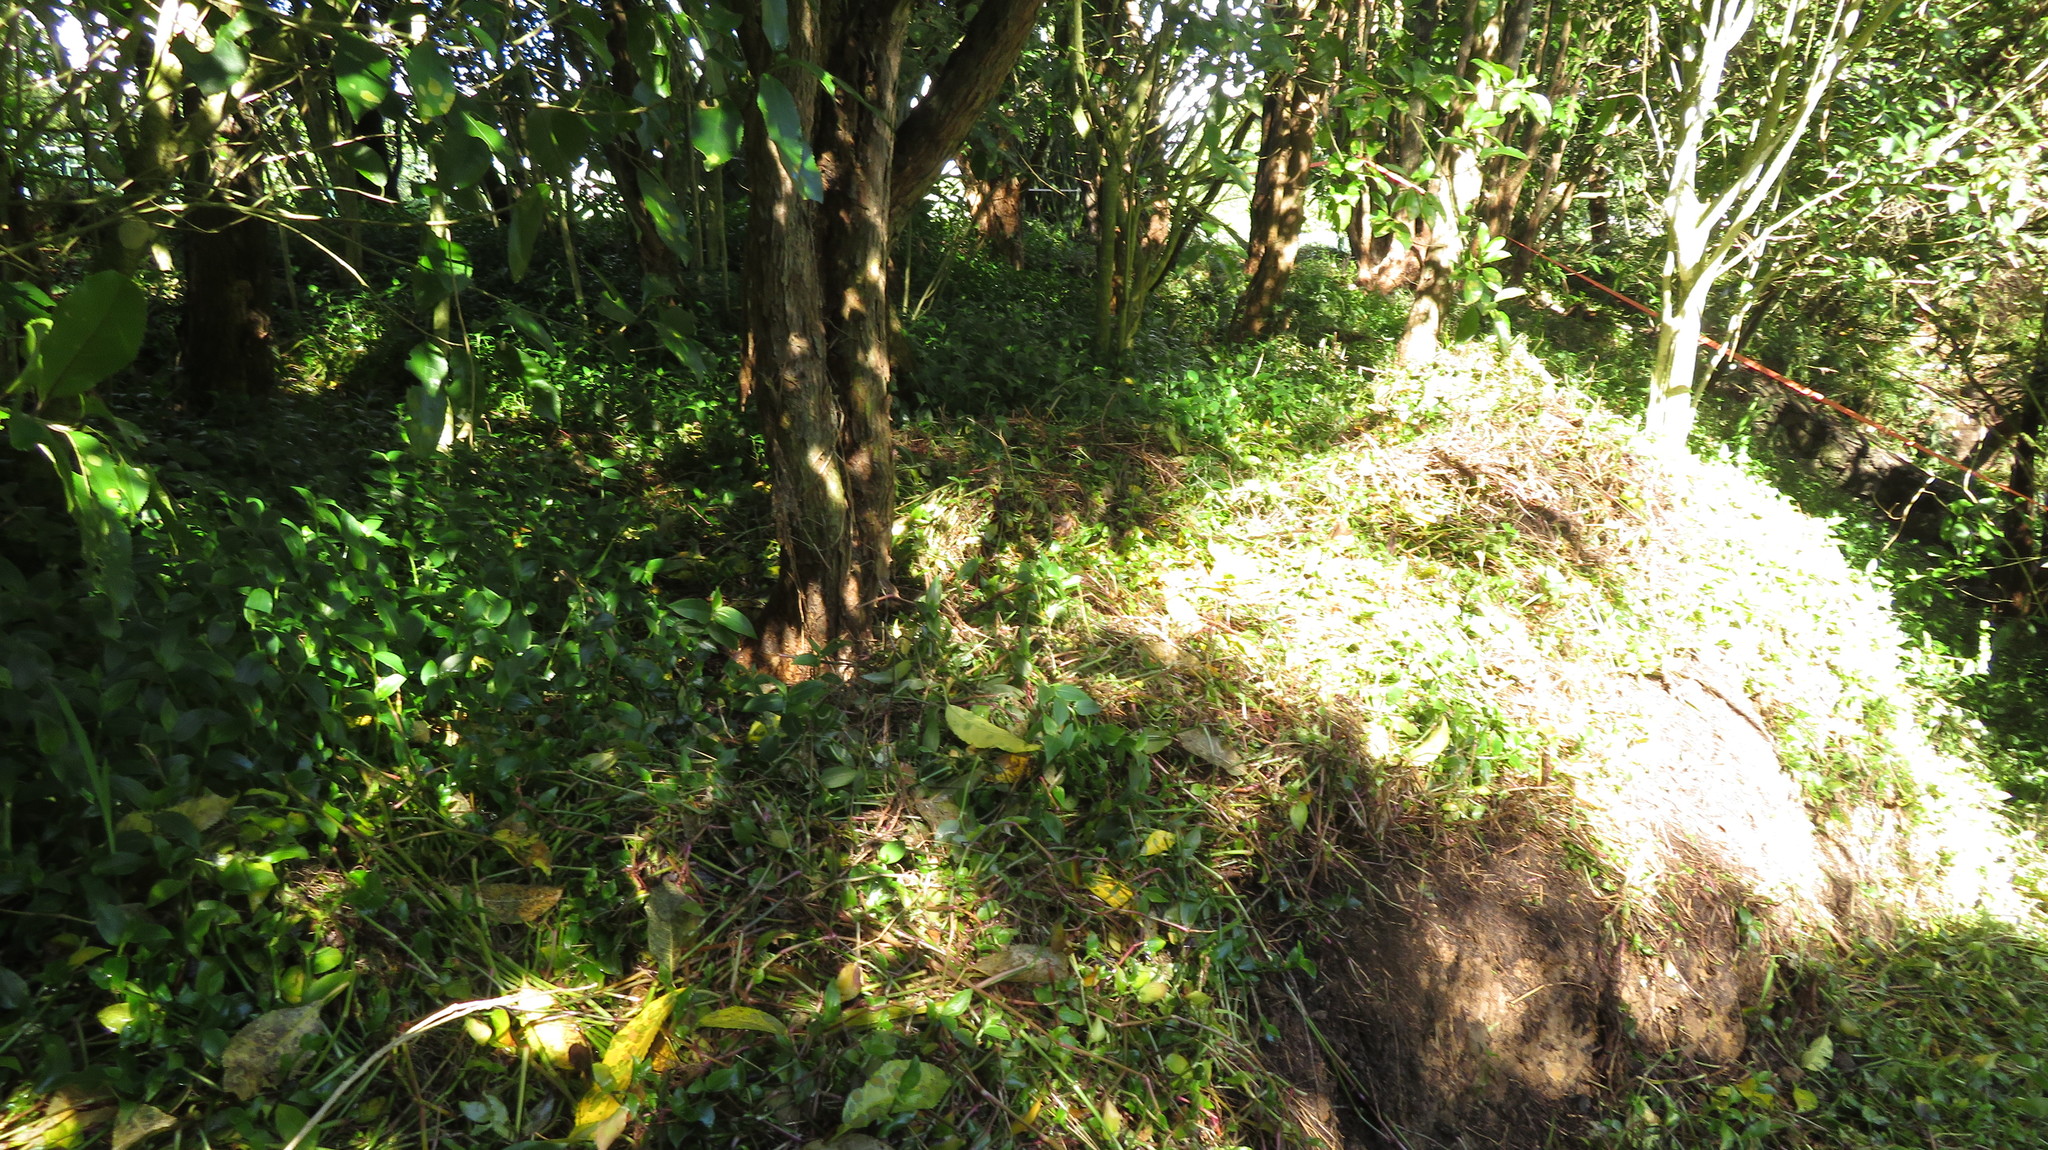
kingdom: Plantae
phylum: Tracheophyta
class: Liliopsida
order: Commelinales
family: Commelinaceae
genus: Tradescantia
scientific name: Tradescantia fluminensis
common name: Wandering-jew
